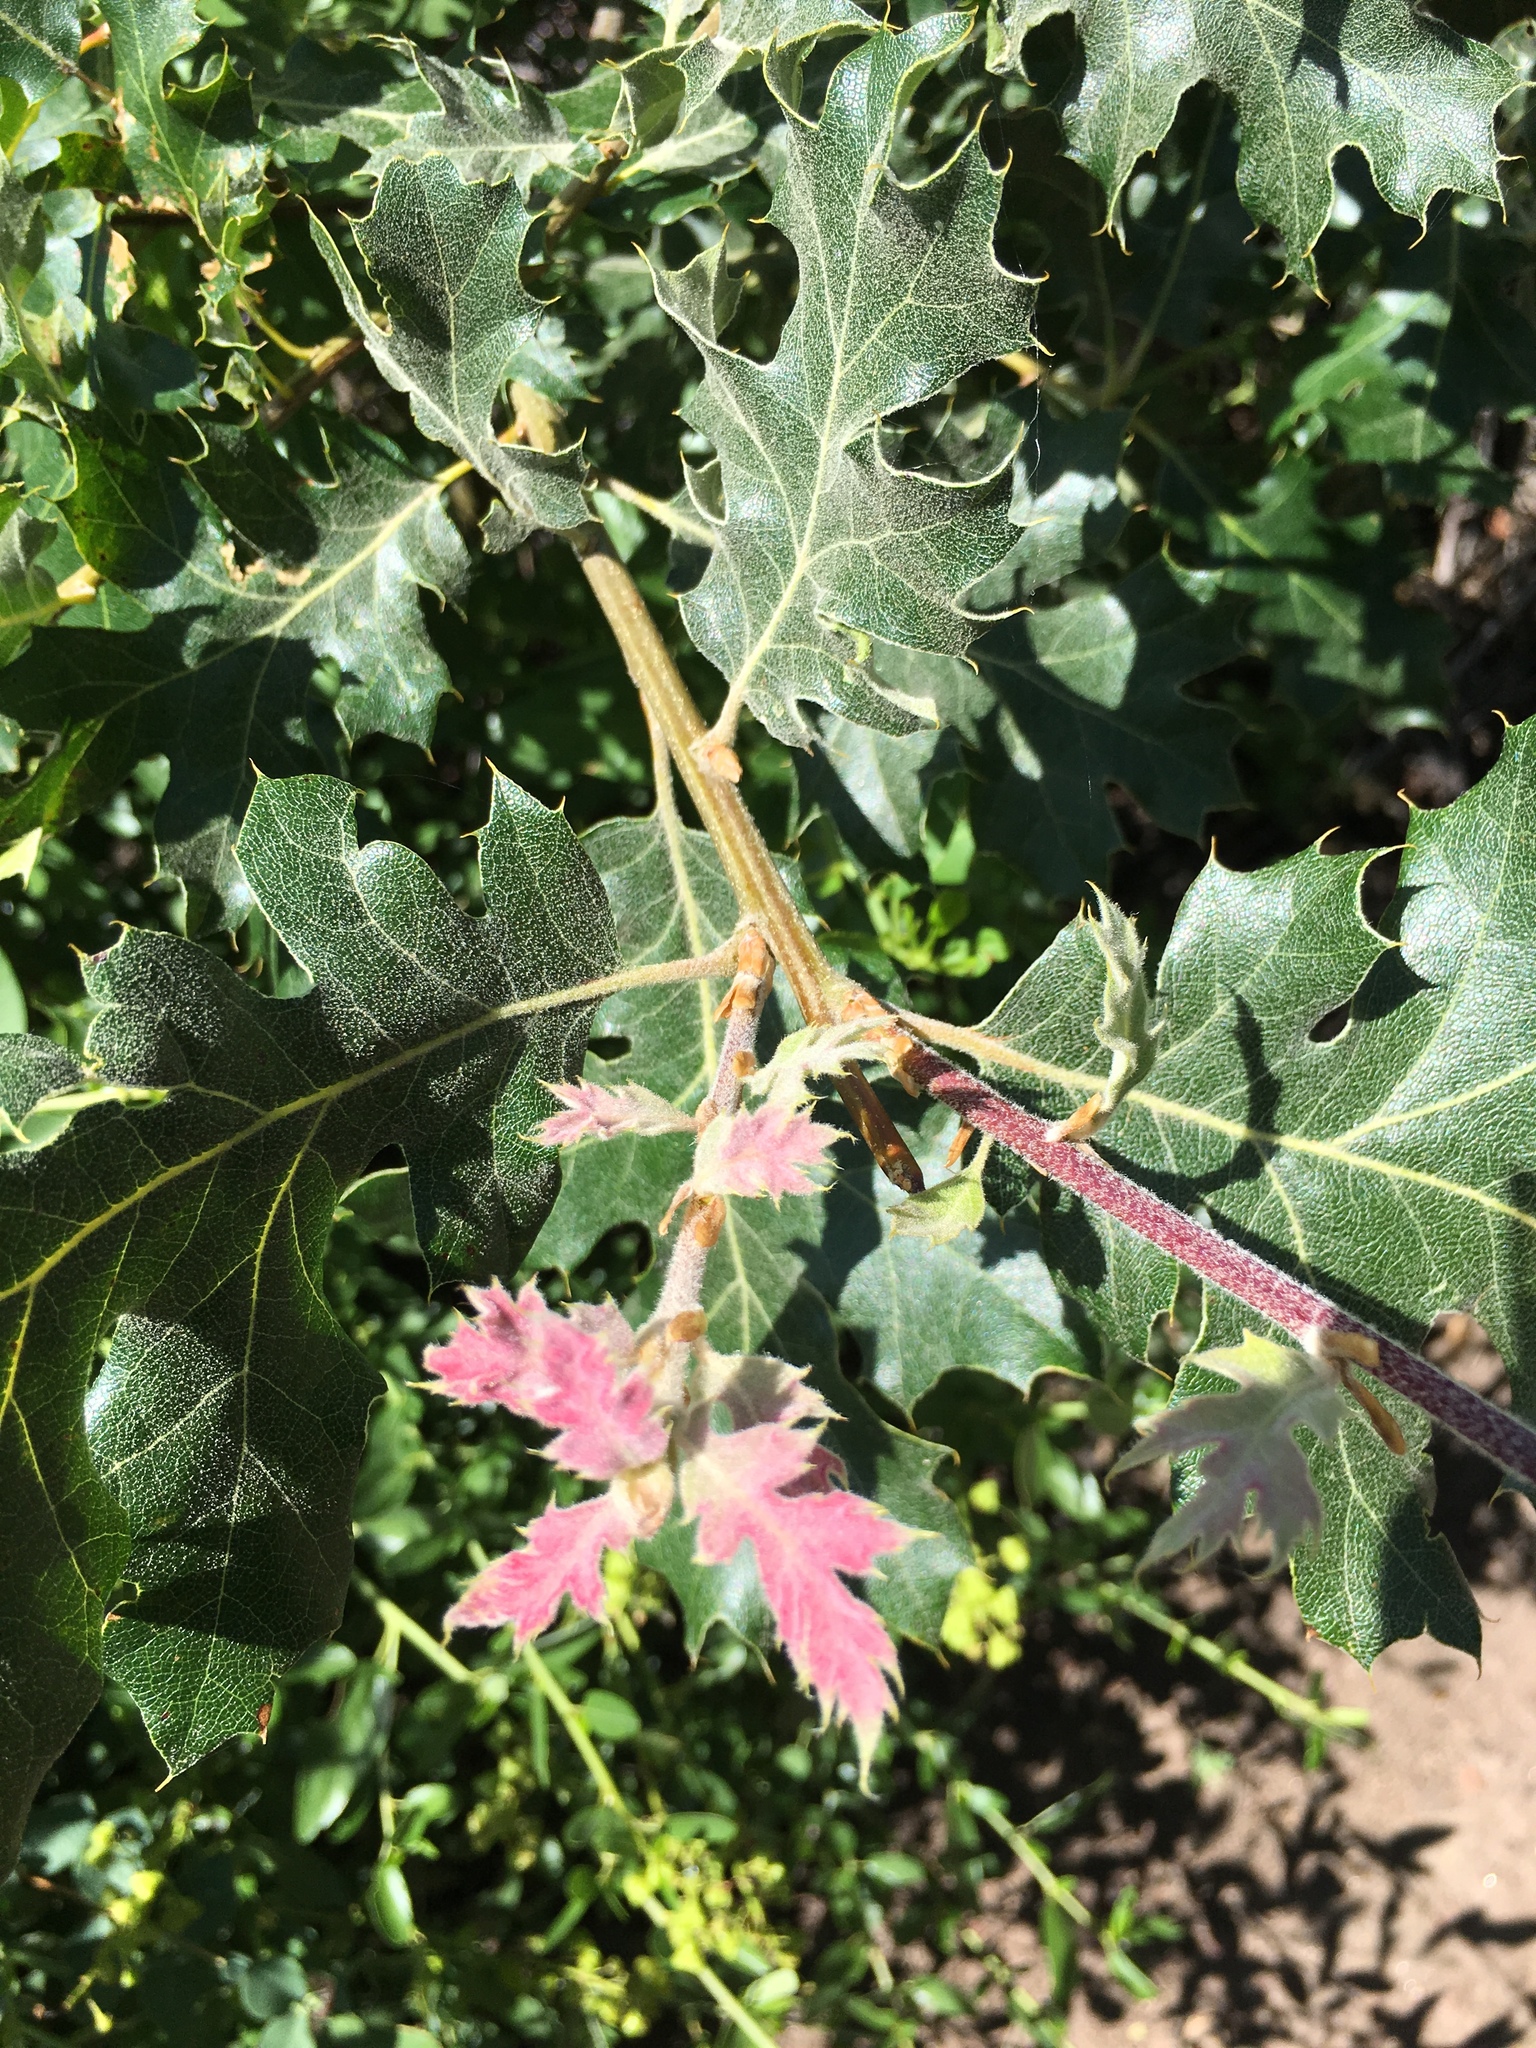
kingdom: Plantae
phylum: Tracheophyta
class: Magnoliopsida
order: Fagales
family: Fagaceae
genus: Quercus
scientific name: Quercus kelloggii
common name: California black oak
